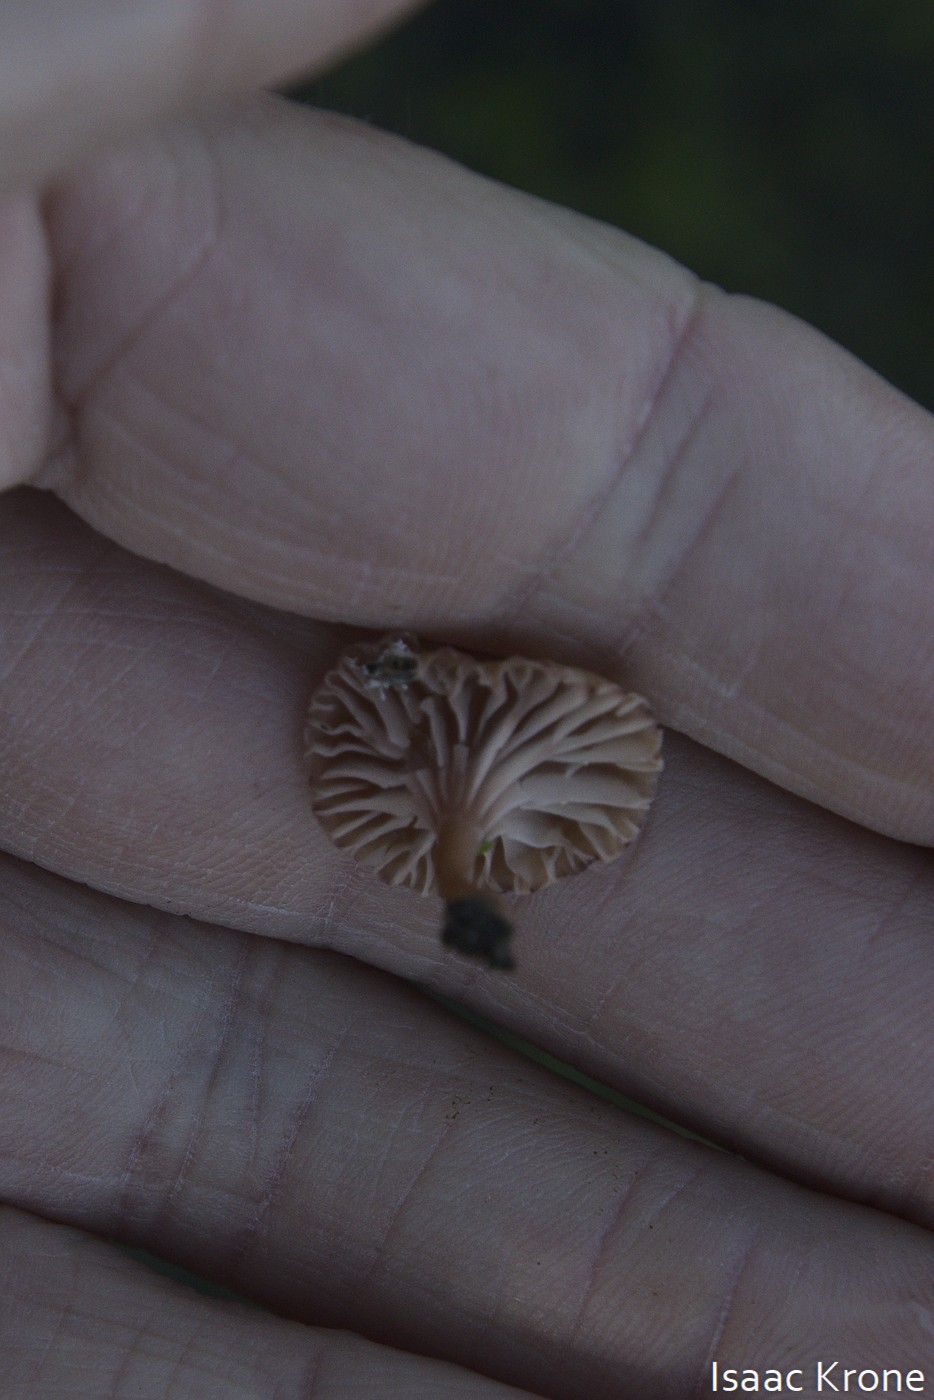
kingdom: Fungi
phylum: Basidiomycota
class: Agaricomycetes
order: Hymenochaetales
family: Rickenellaceae
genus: Contumyces
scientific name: Contumyces rosellus
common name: Rosy navel
